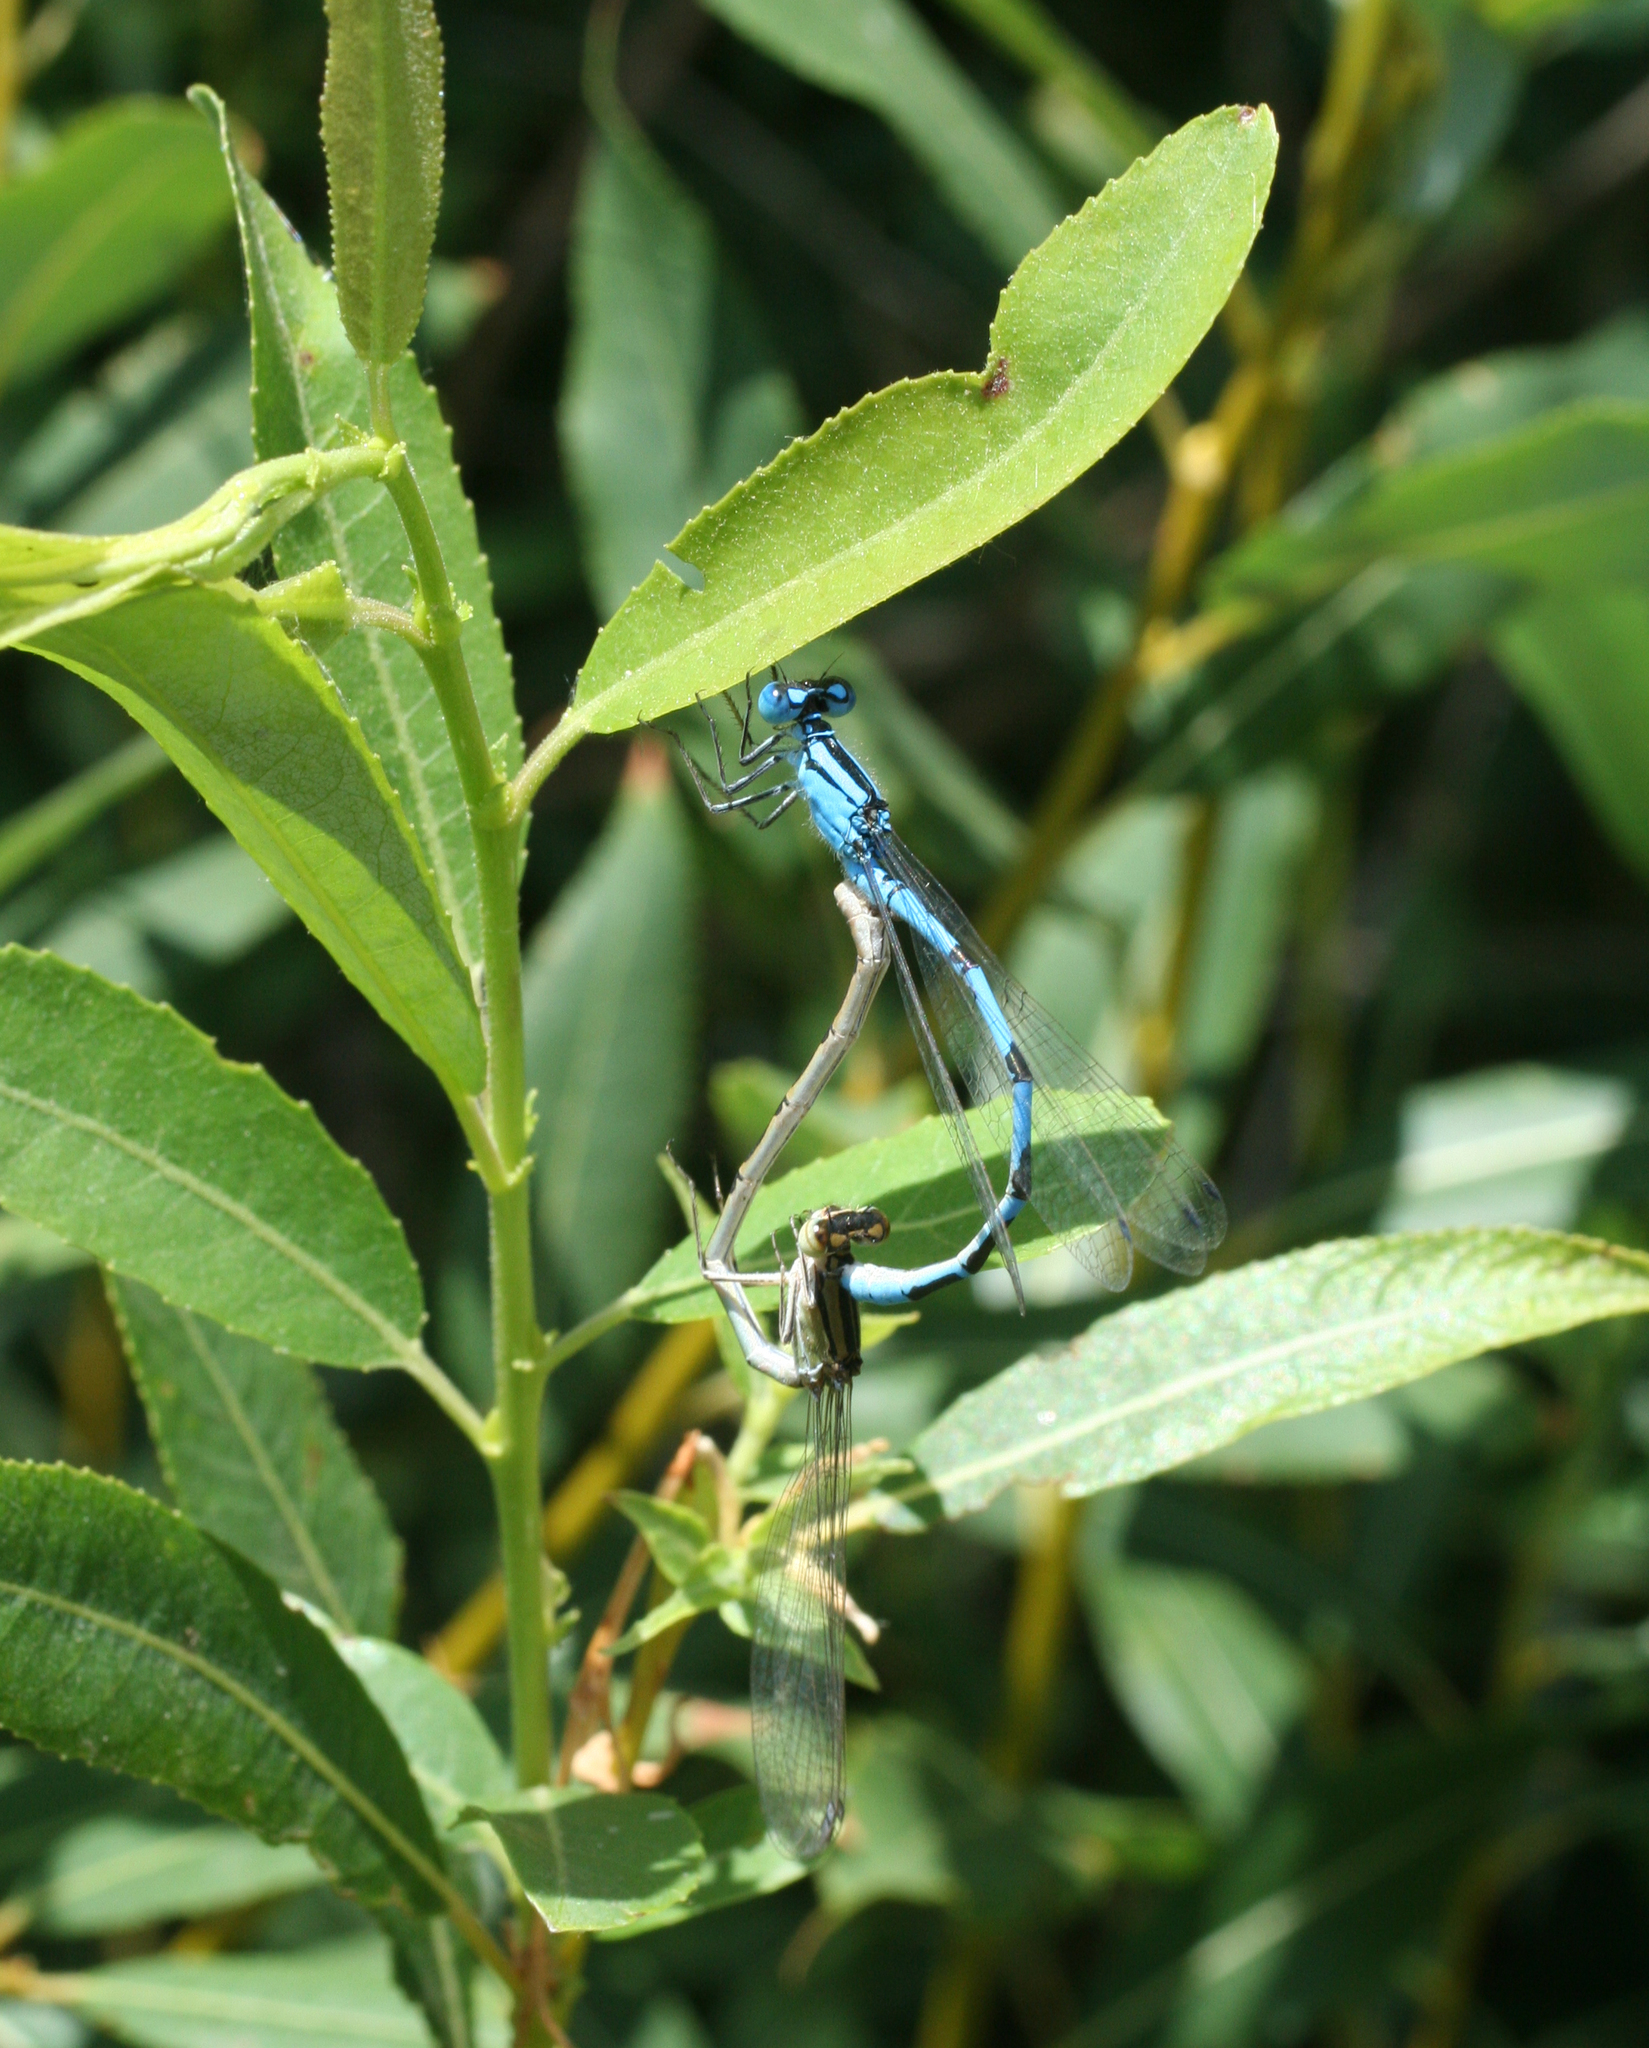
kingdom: Animalia
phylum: Arthropoda
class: Insecta
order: Odonata
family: Coenagrionidae
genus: Enallagma
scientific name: Enallagma cyathigerum
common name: Common blue damselfly
